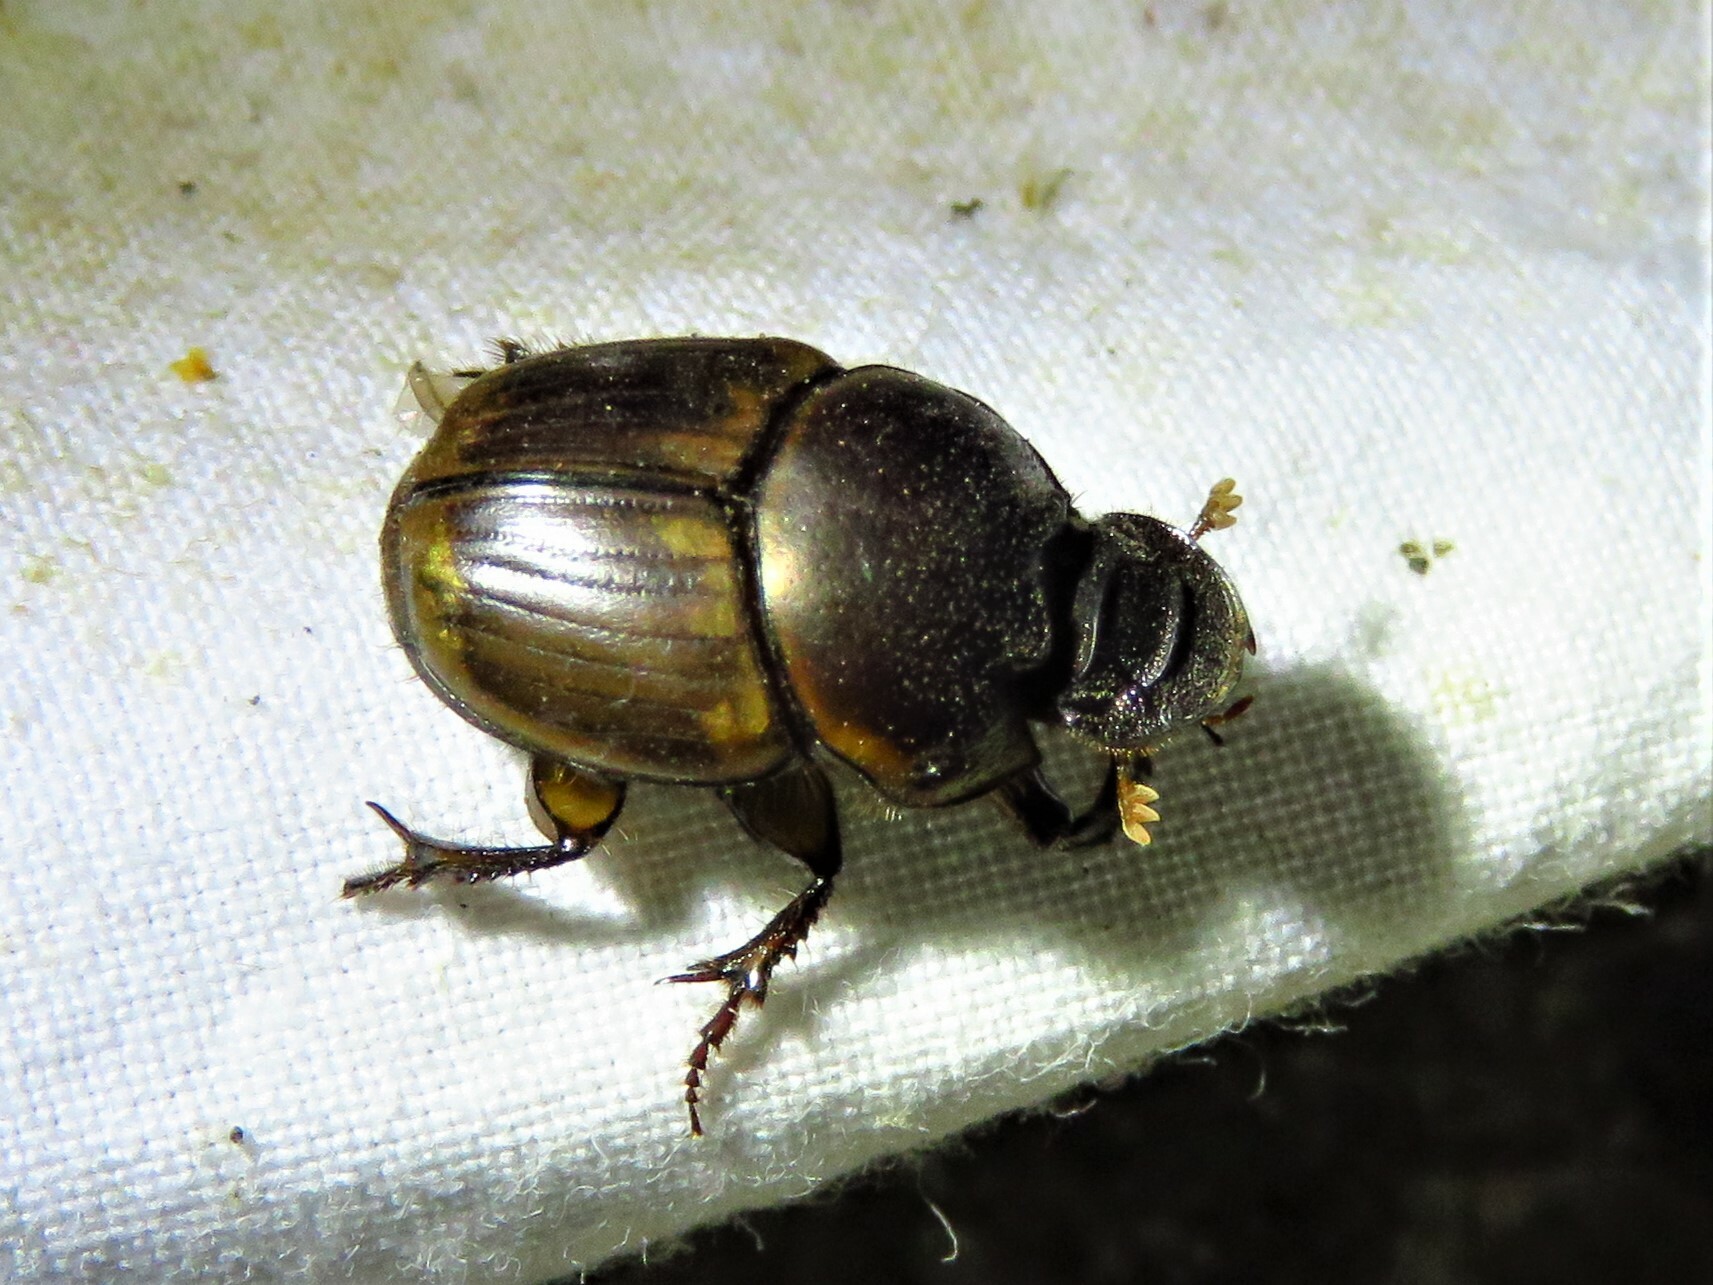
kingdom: Animalia
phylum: Arthropoda
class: Insecta
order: Coleoptera
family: Scarabaeidae
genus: Digitonthophagus
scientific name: Digitonthophagus gazella
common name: Brown dung beetle
